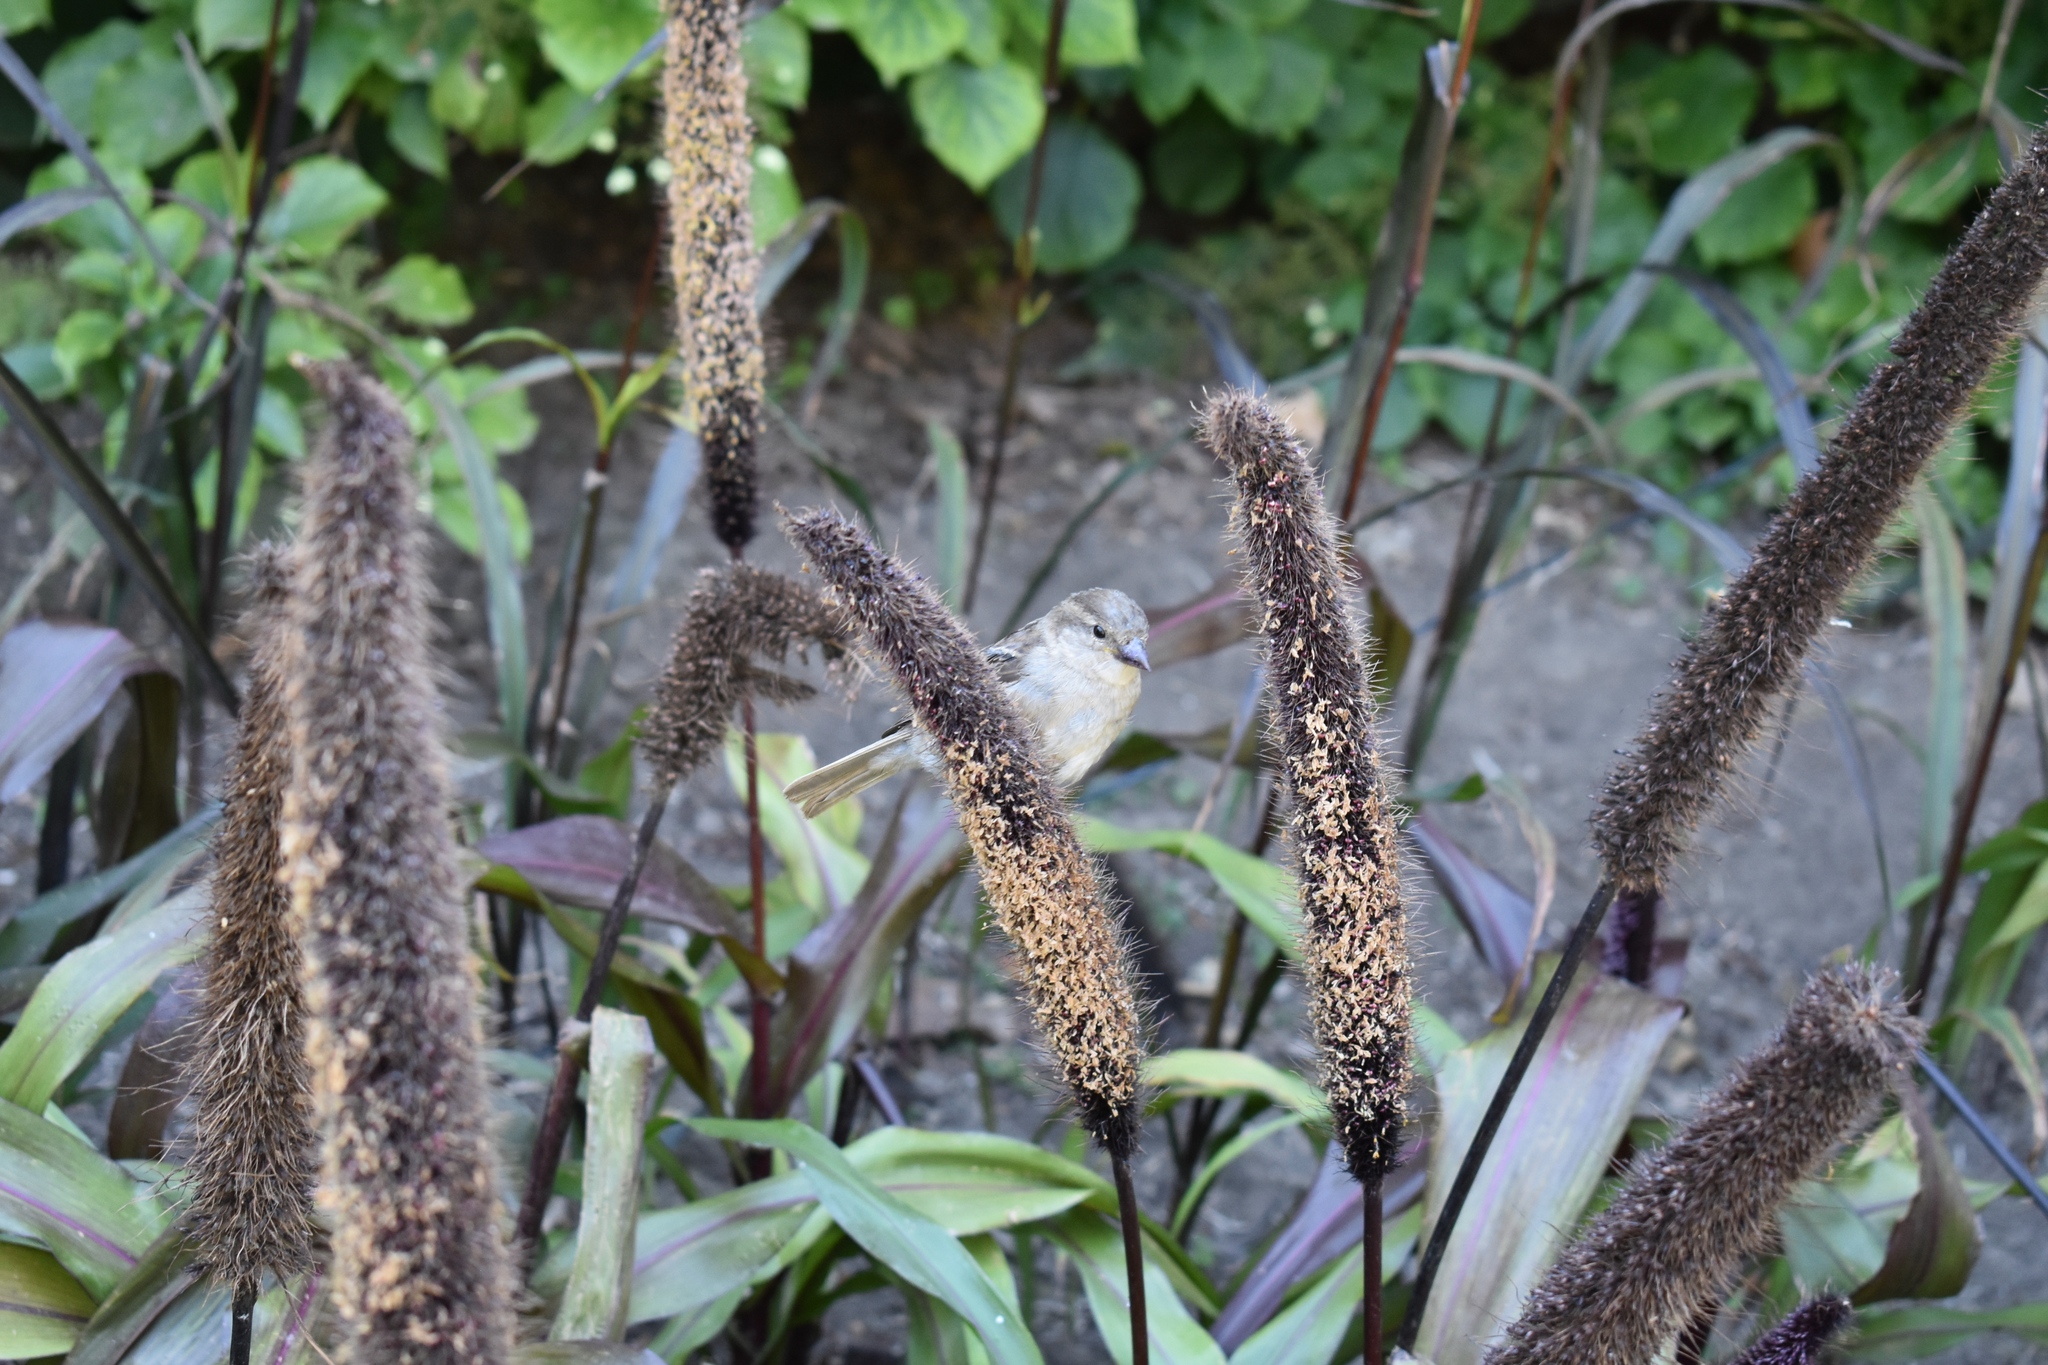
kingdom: Animalia
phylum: Chordata
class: Aves
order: Passeriformes
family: Passeridae
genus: Passer
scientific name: Passer domesticus
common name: House sparrow
